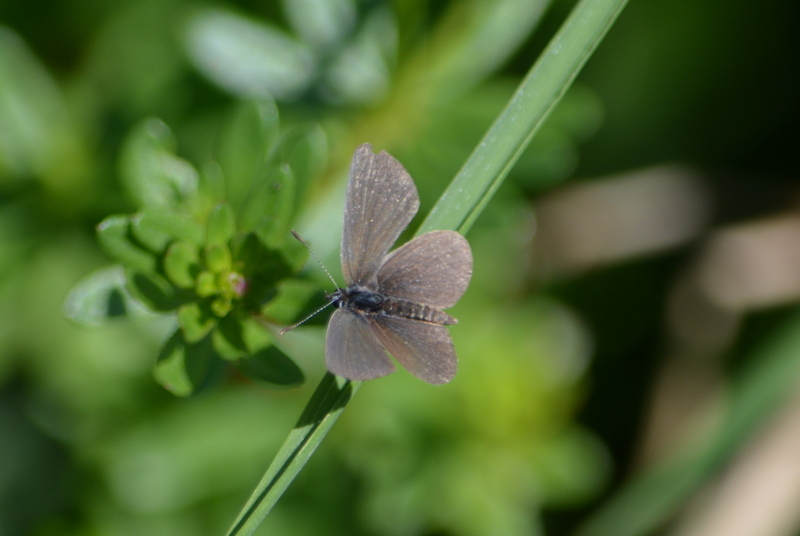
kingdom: Animalia
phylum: Arthropoda
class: Insecta
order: Lepidoptera
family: Lycaenidae
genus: Cupido
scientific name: Cupido minimus
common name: Small blue
